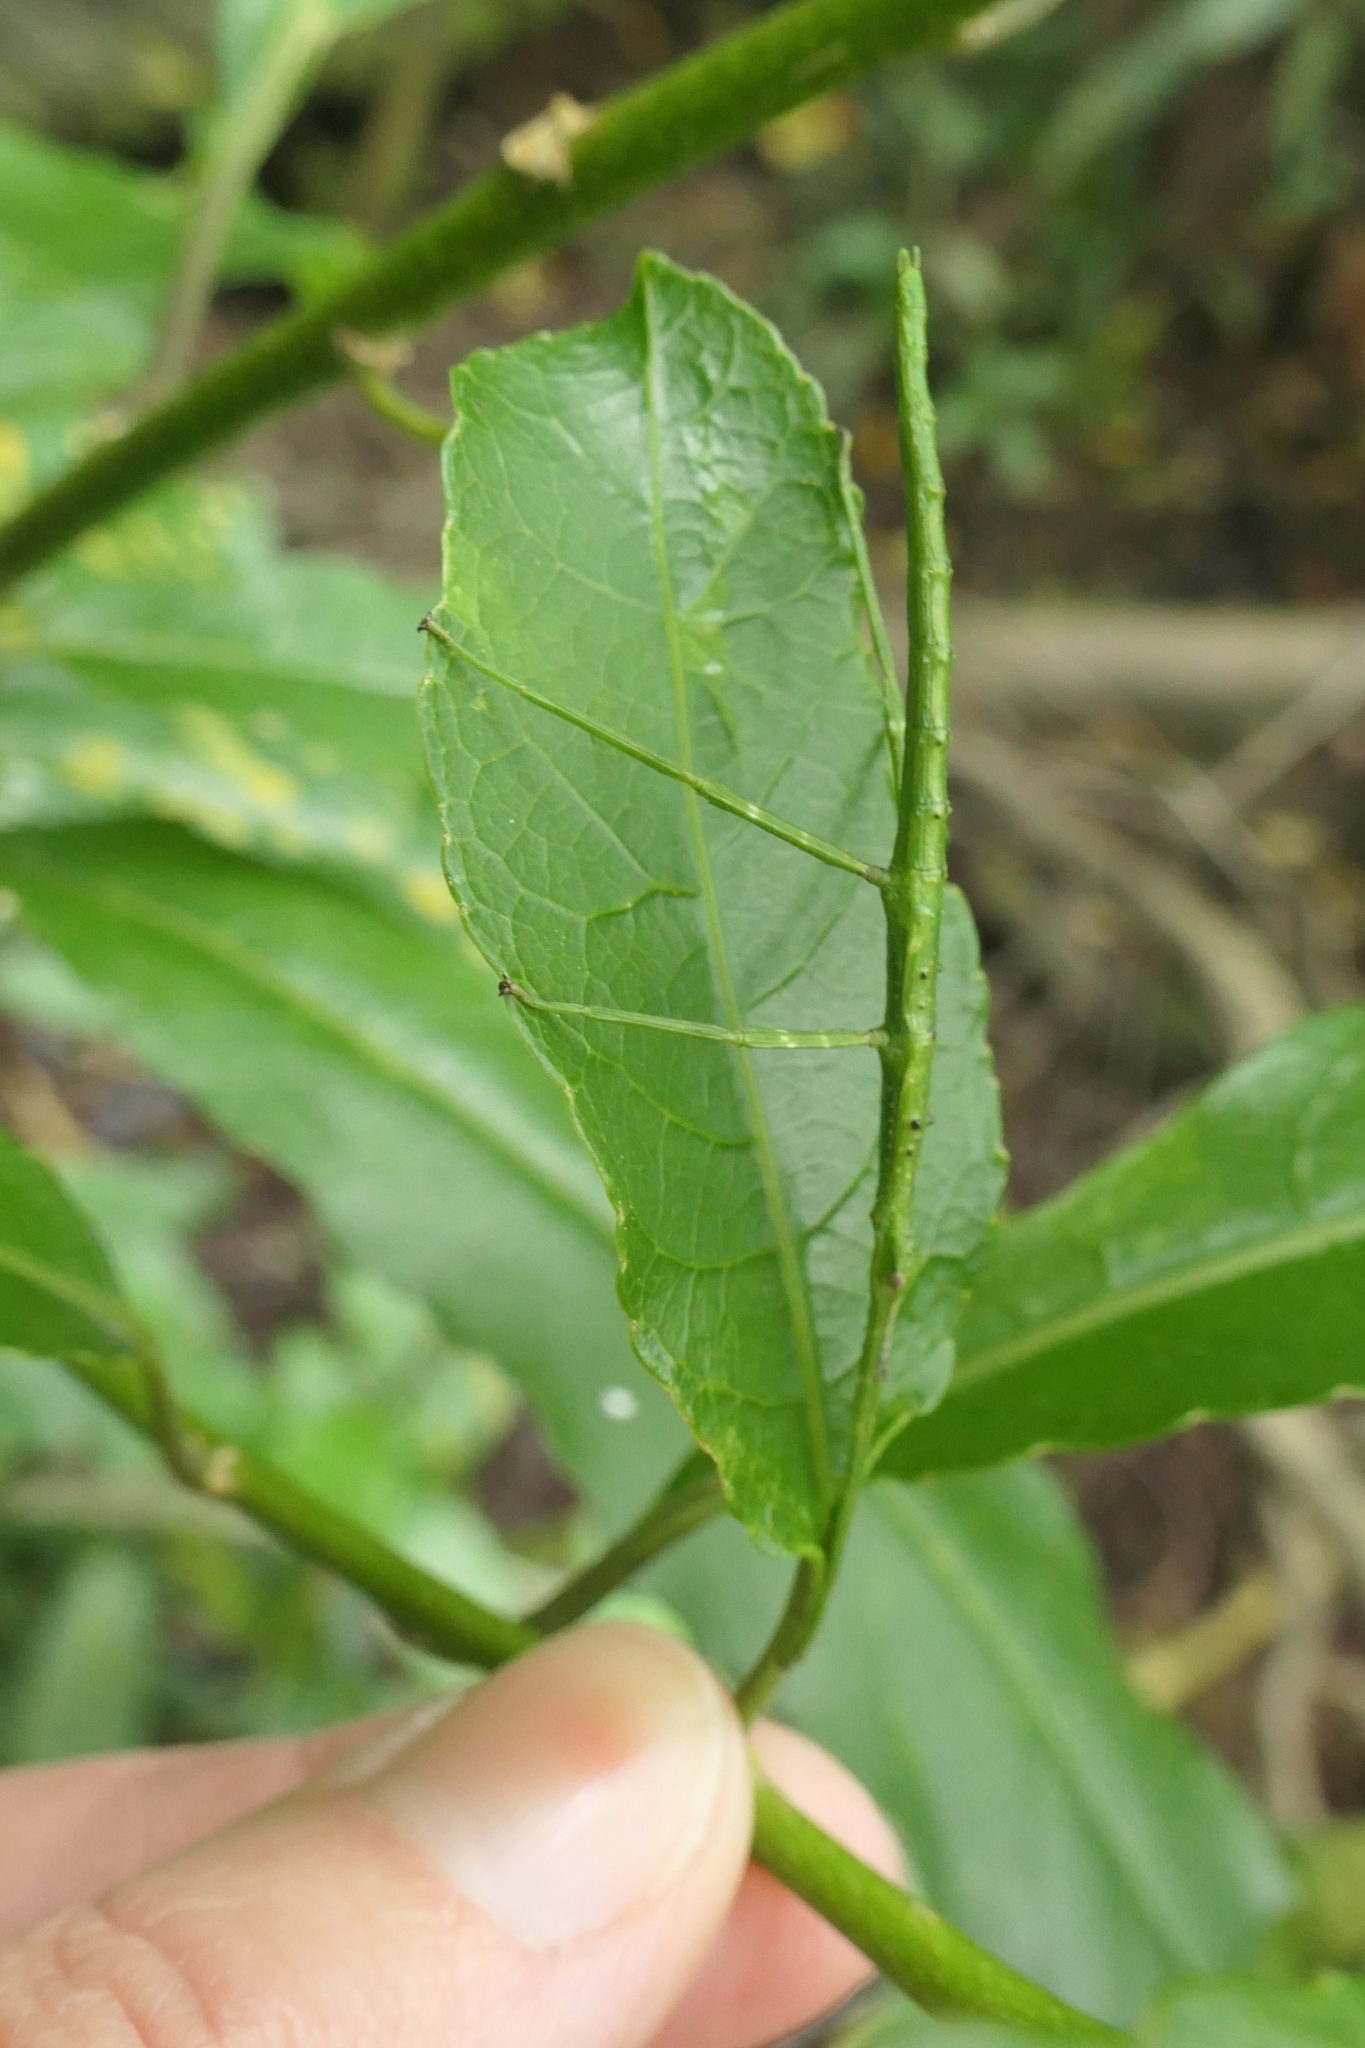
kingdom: Animalia
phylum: Arthropoda
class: Insecta
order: Phasmida
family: Phasmatidae
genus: Acanthoxyla
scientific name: Acanthoxyla prasina
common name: Black-spined stick insect
